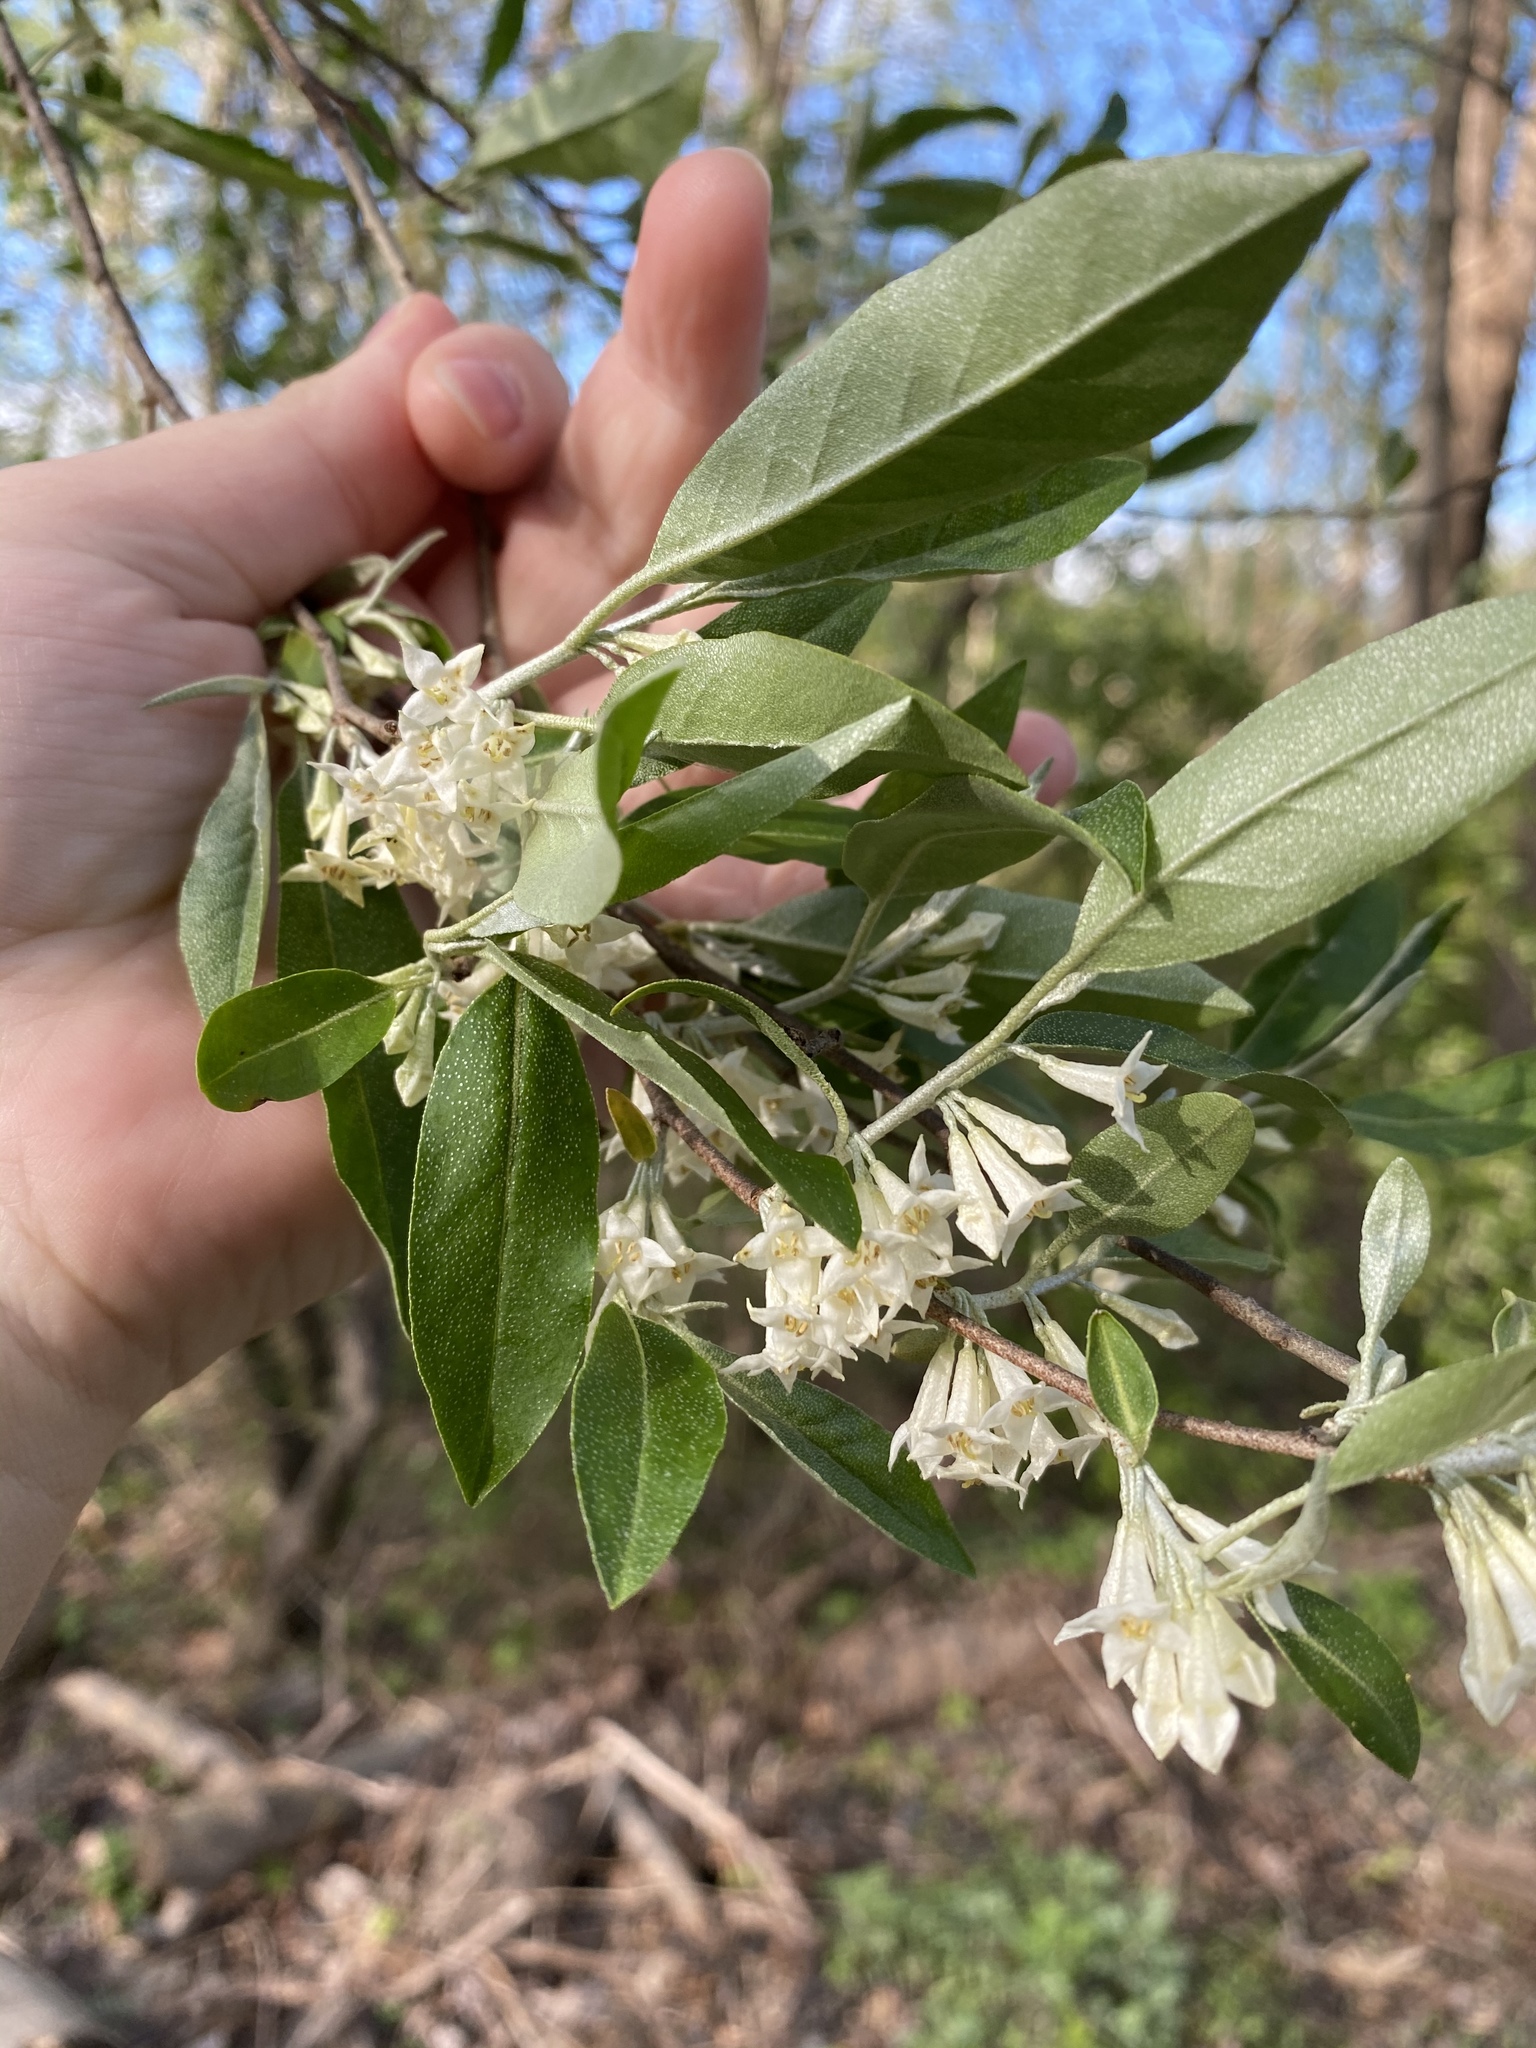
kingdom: Plantae
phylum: Tracheophyta
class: Magnoliopsida
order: Rosales
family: Elaeagnaceae
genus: Elaeagnus
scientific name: Elaeagnus umbellata
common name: Autumn olive
